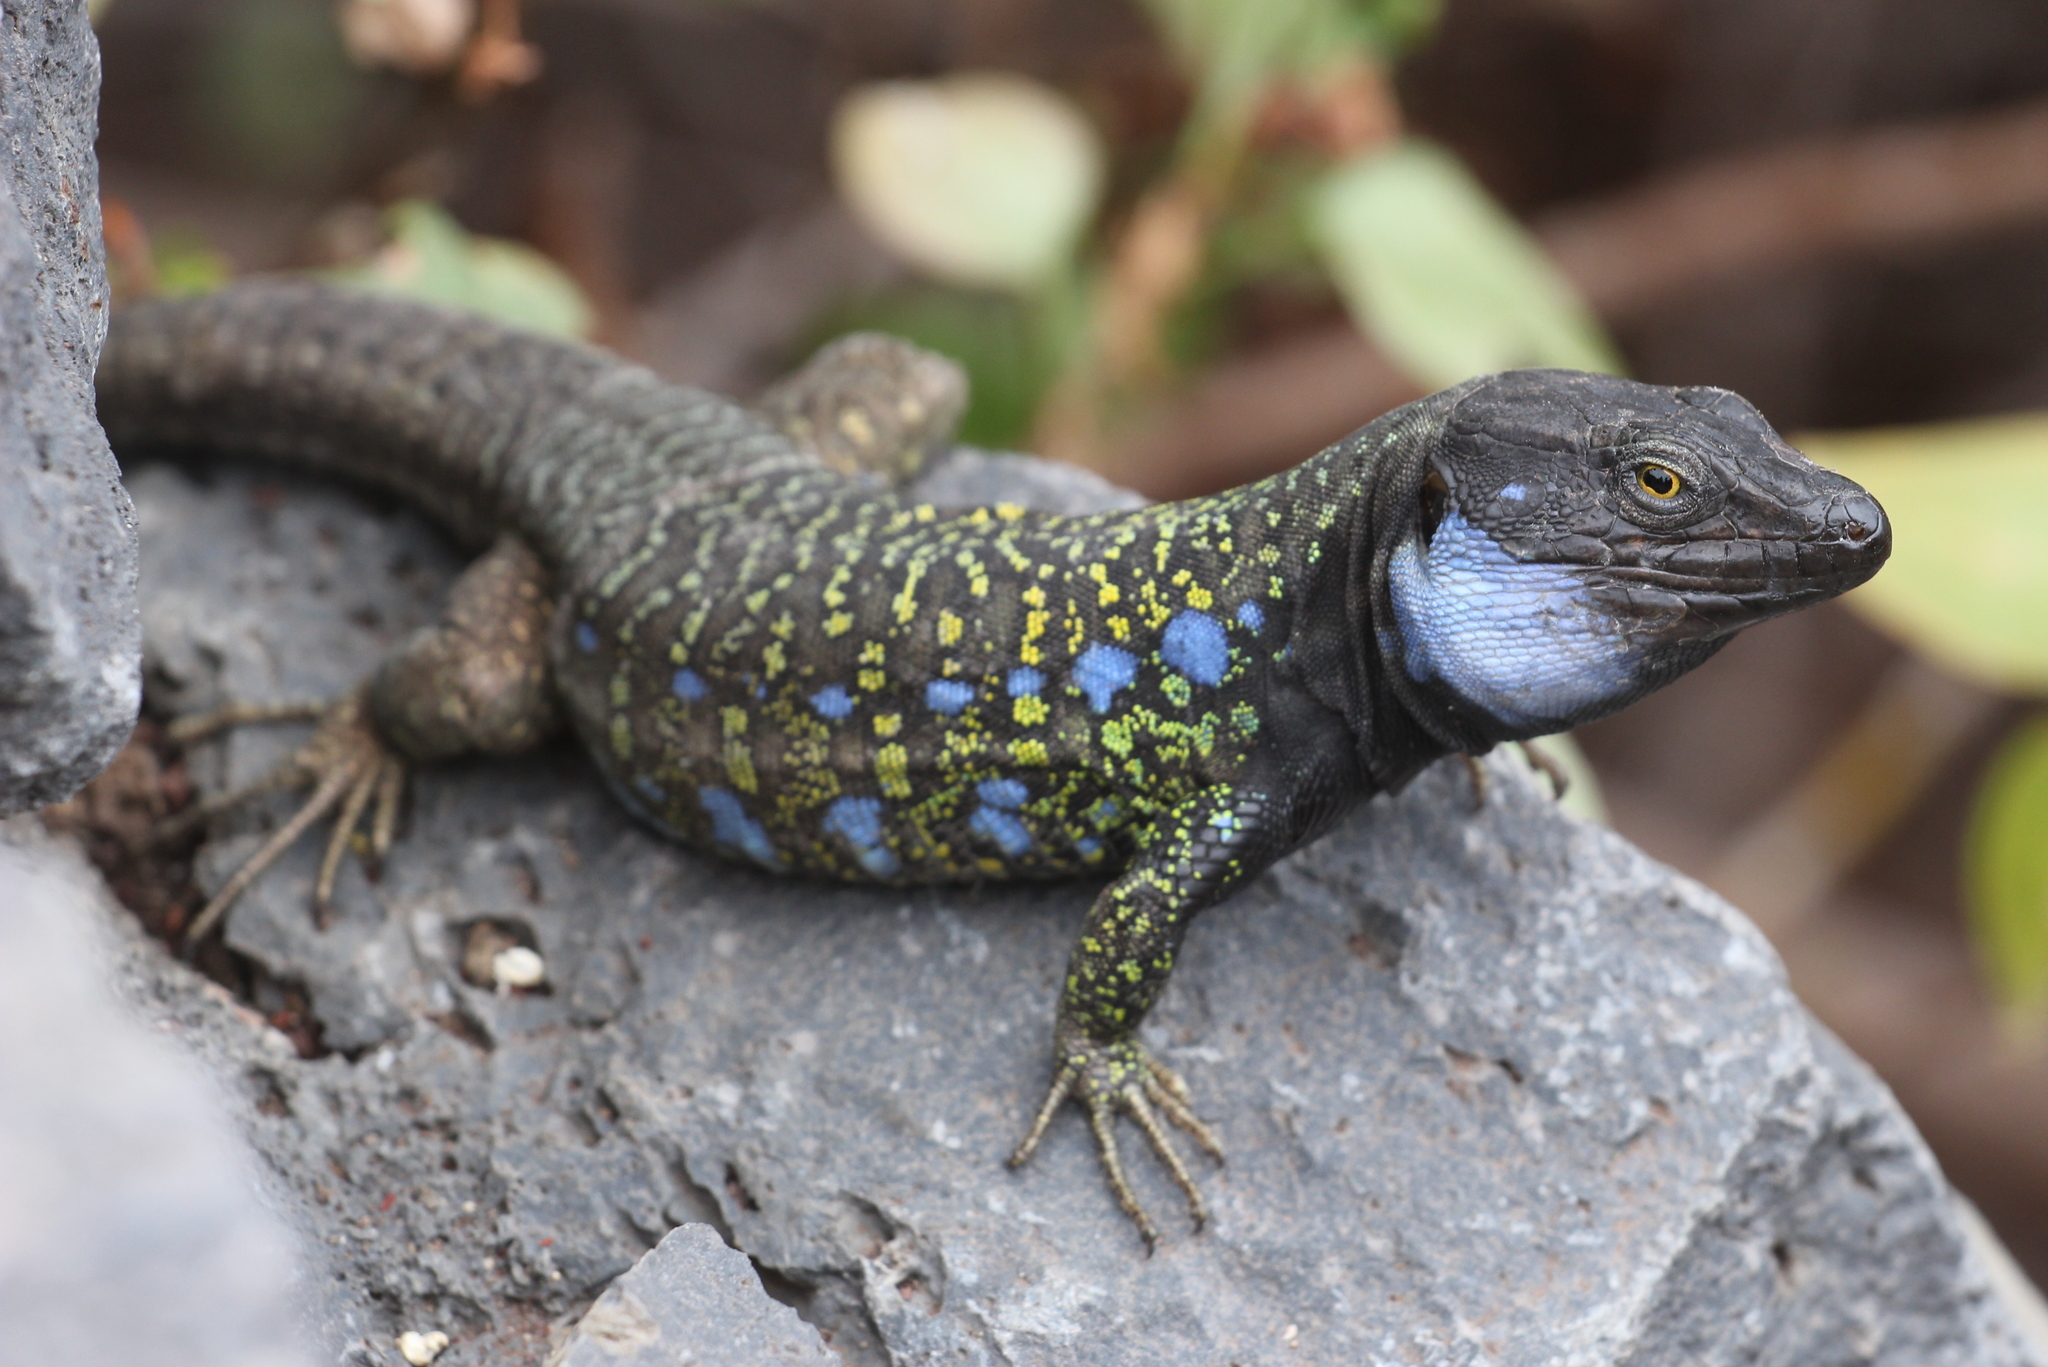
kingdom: Animalia
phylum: Chordata
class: Squamata
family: Lacertidae
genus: Gallotia
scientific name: Gallotia galloti
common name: Gallot's lizard
